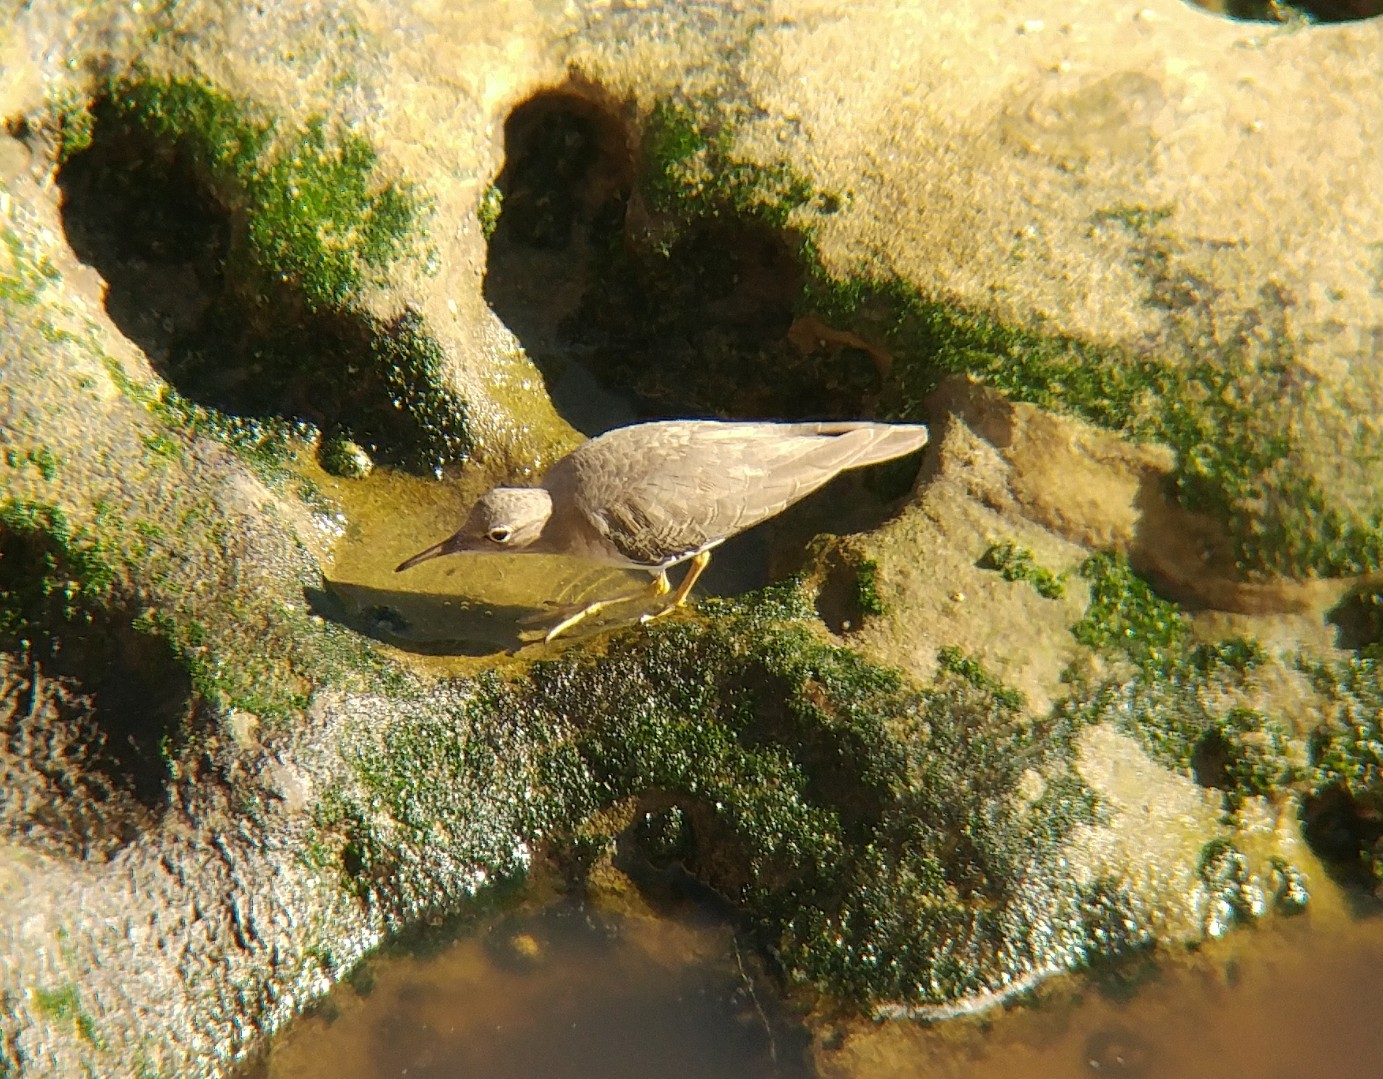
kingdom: Animalia
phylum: Chordata
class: Aves
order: Charadriiformes
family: Scolopacidae
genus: Actitis
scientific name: Actitis macularius
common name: Spotted sandpiper
